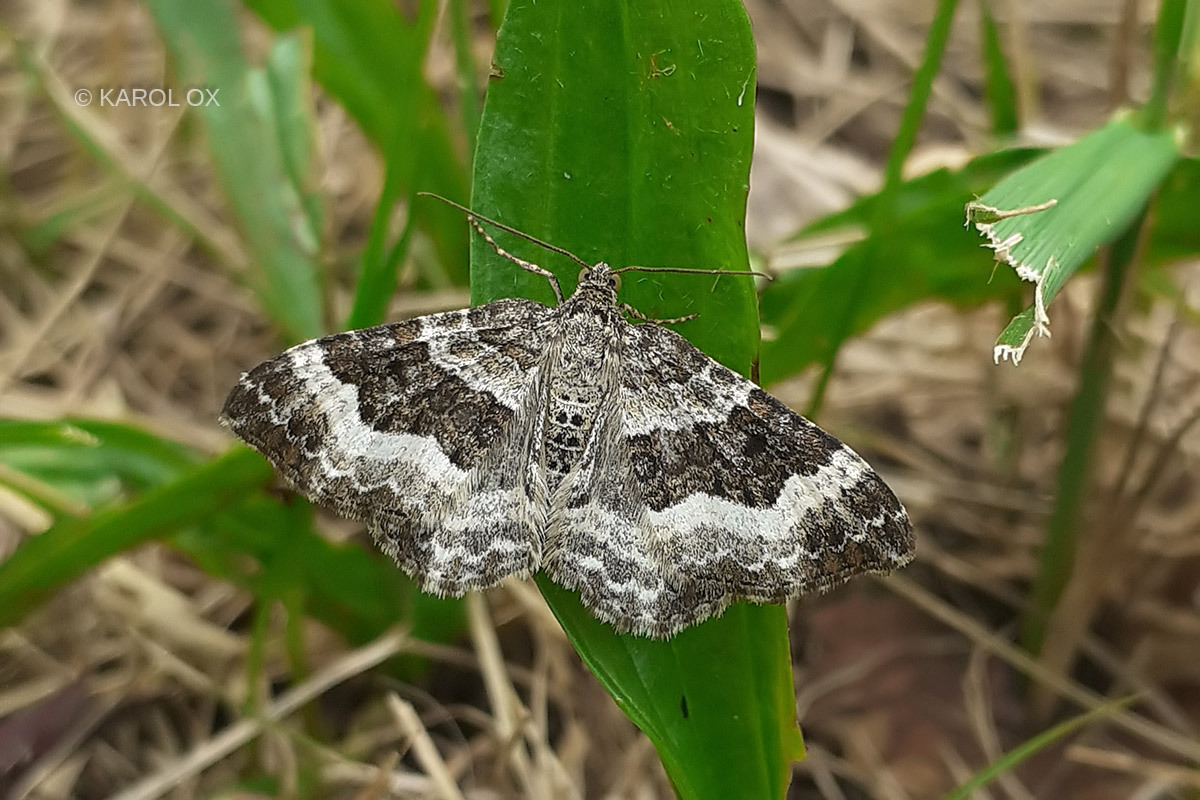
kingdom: Animalia
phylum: Arthropoda
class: Insecta
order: Lepidoptera
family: Geometridae
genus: Epirrhoe
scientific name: Epirrhoe alternata
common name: Common carpet
